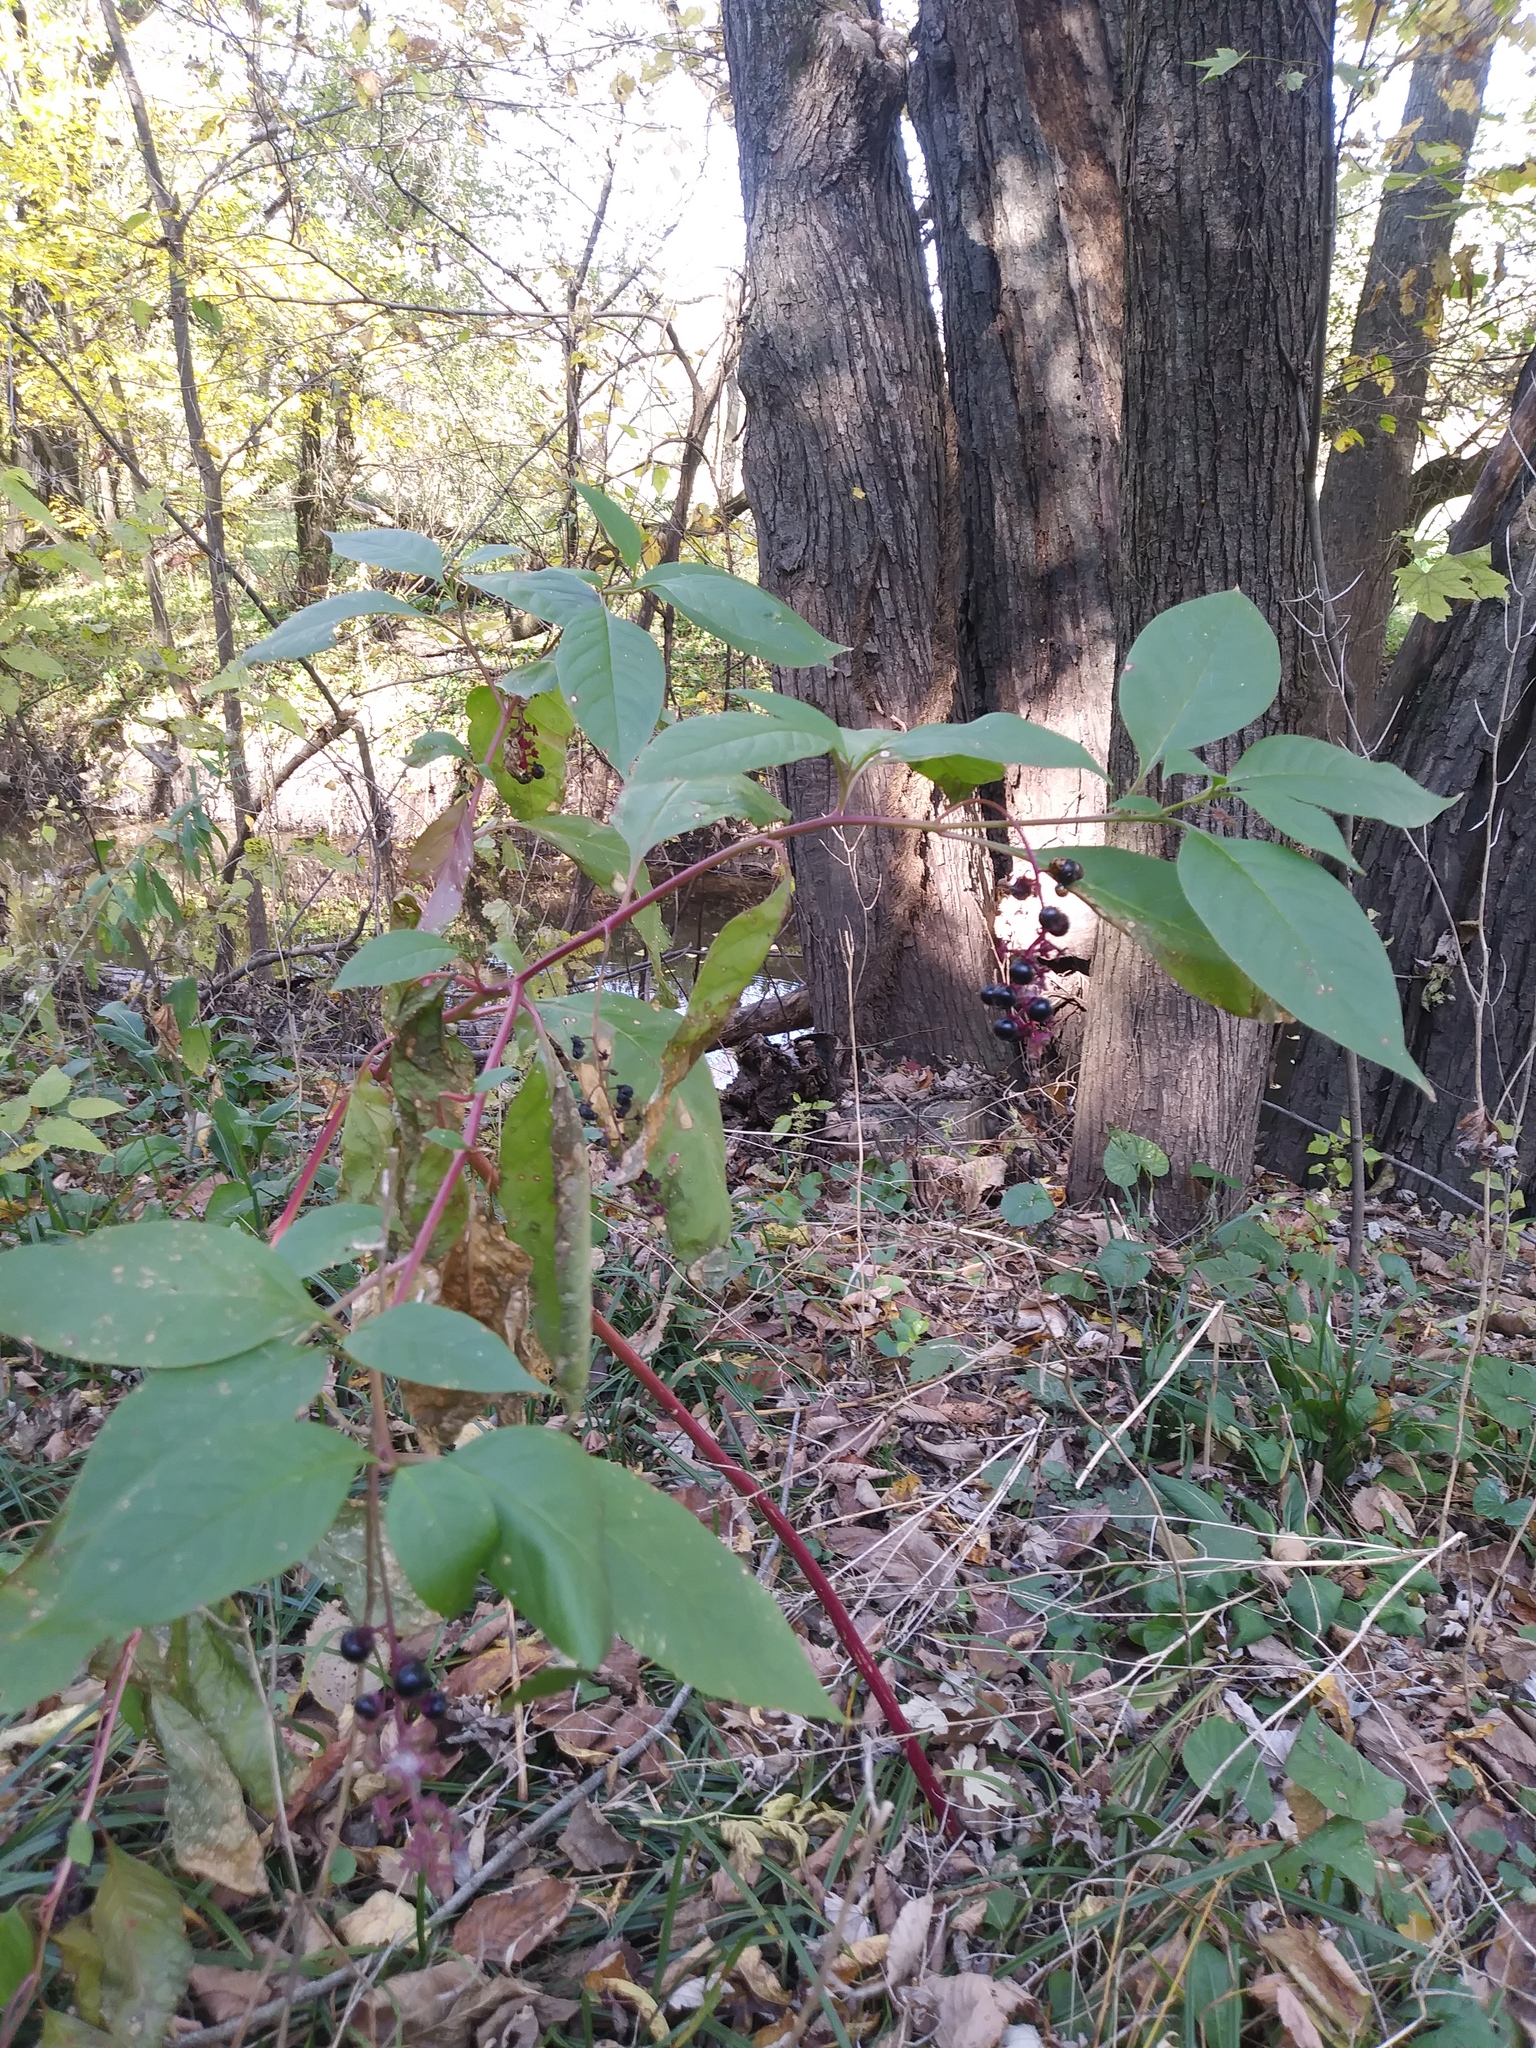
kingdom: Plantae
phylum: Tracheophyta
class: Magnoliopsida
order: Caryophyllales
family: Phytolaccaceae
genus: Phytolacca
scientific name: Phytolacca americana
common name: American pokeweed
